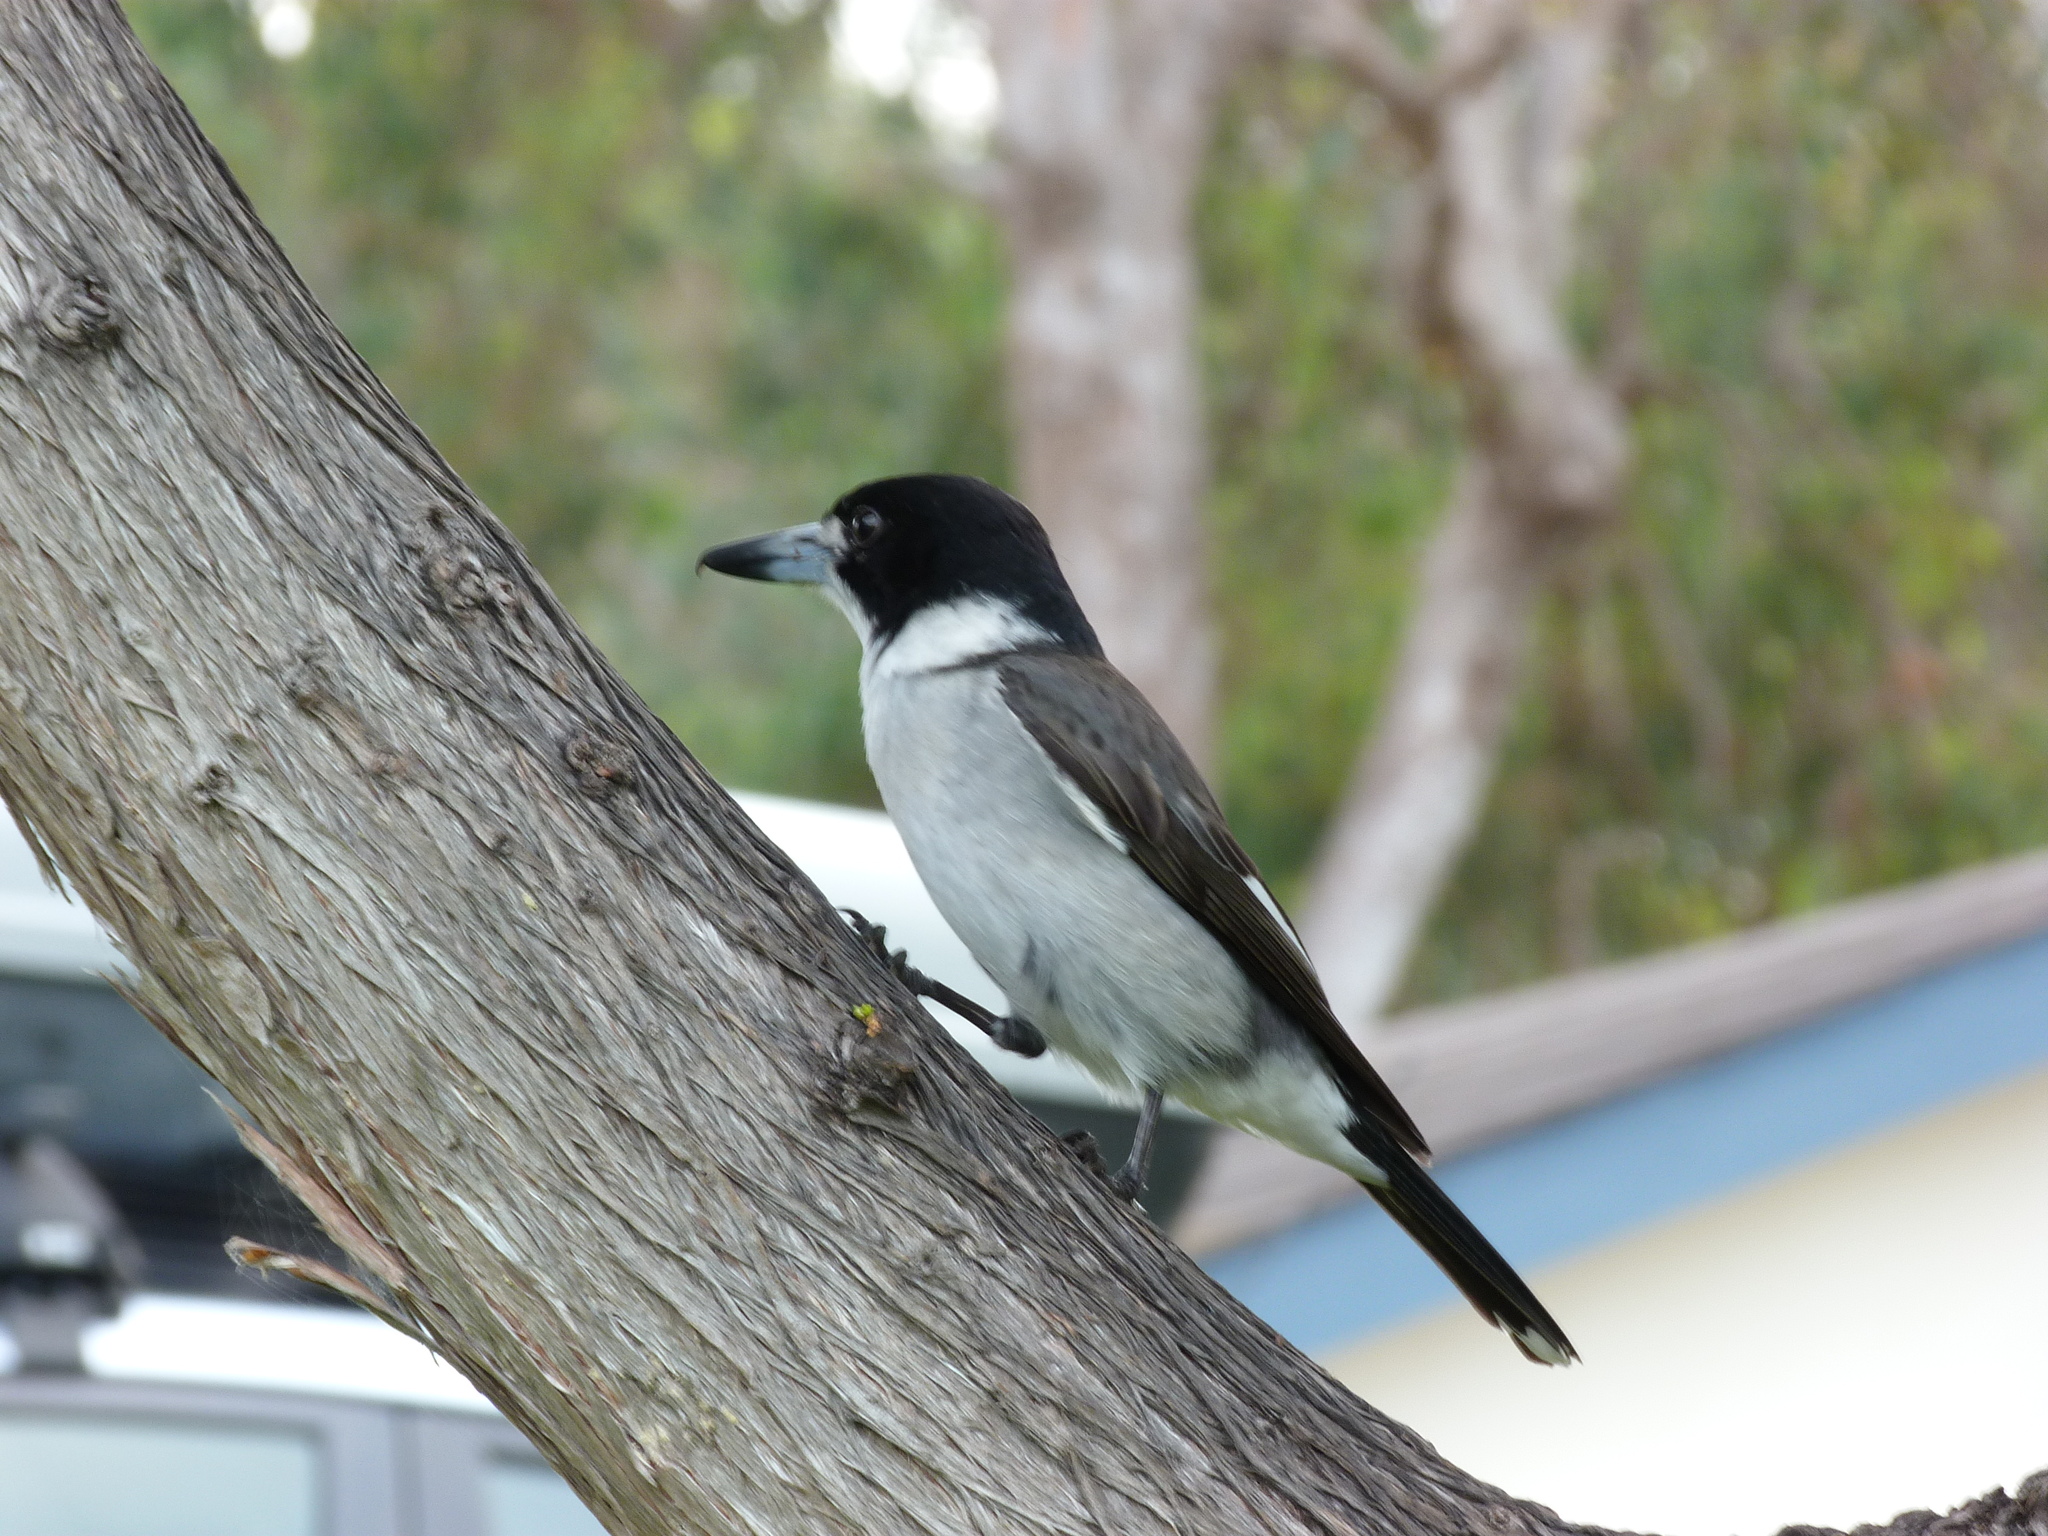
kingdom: Animalia
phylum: Chordata
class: Aves
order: Passeriformes
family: Cracticidae
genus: Cracticus
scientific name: Cracticus torquatus
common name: Grey butcherbird
